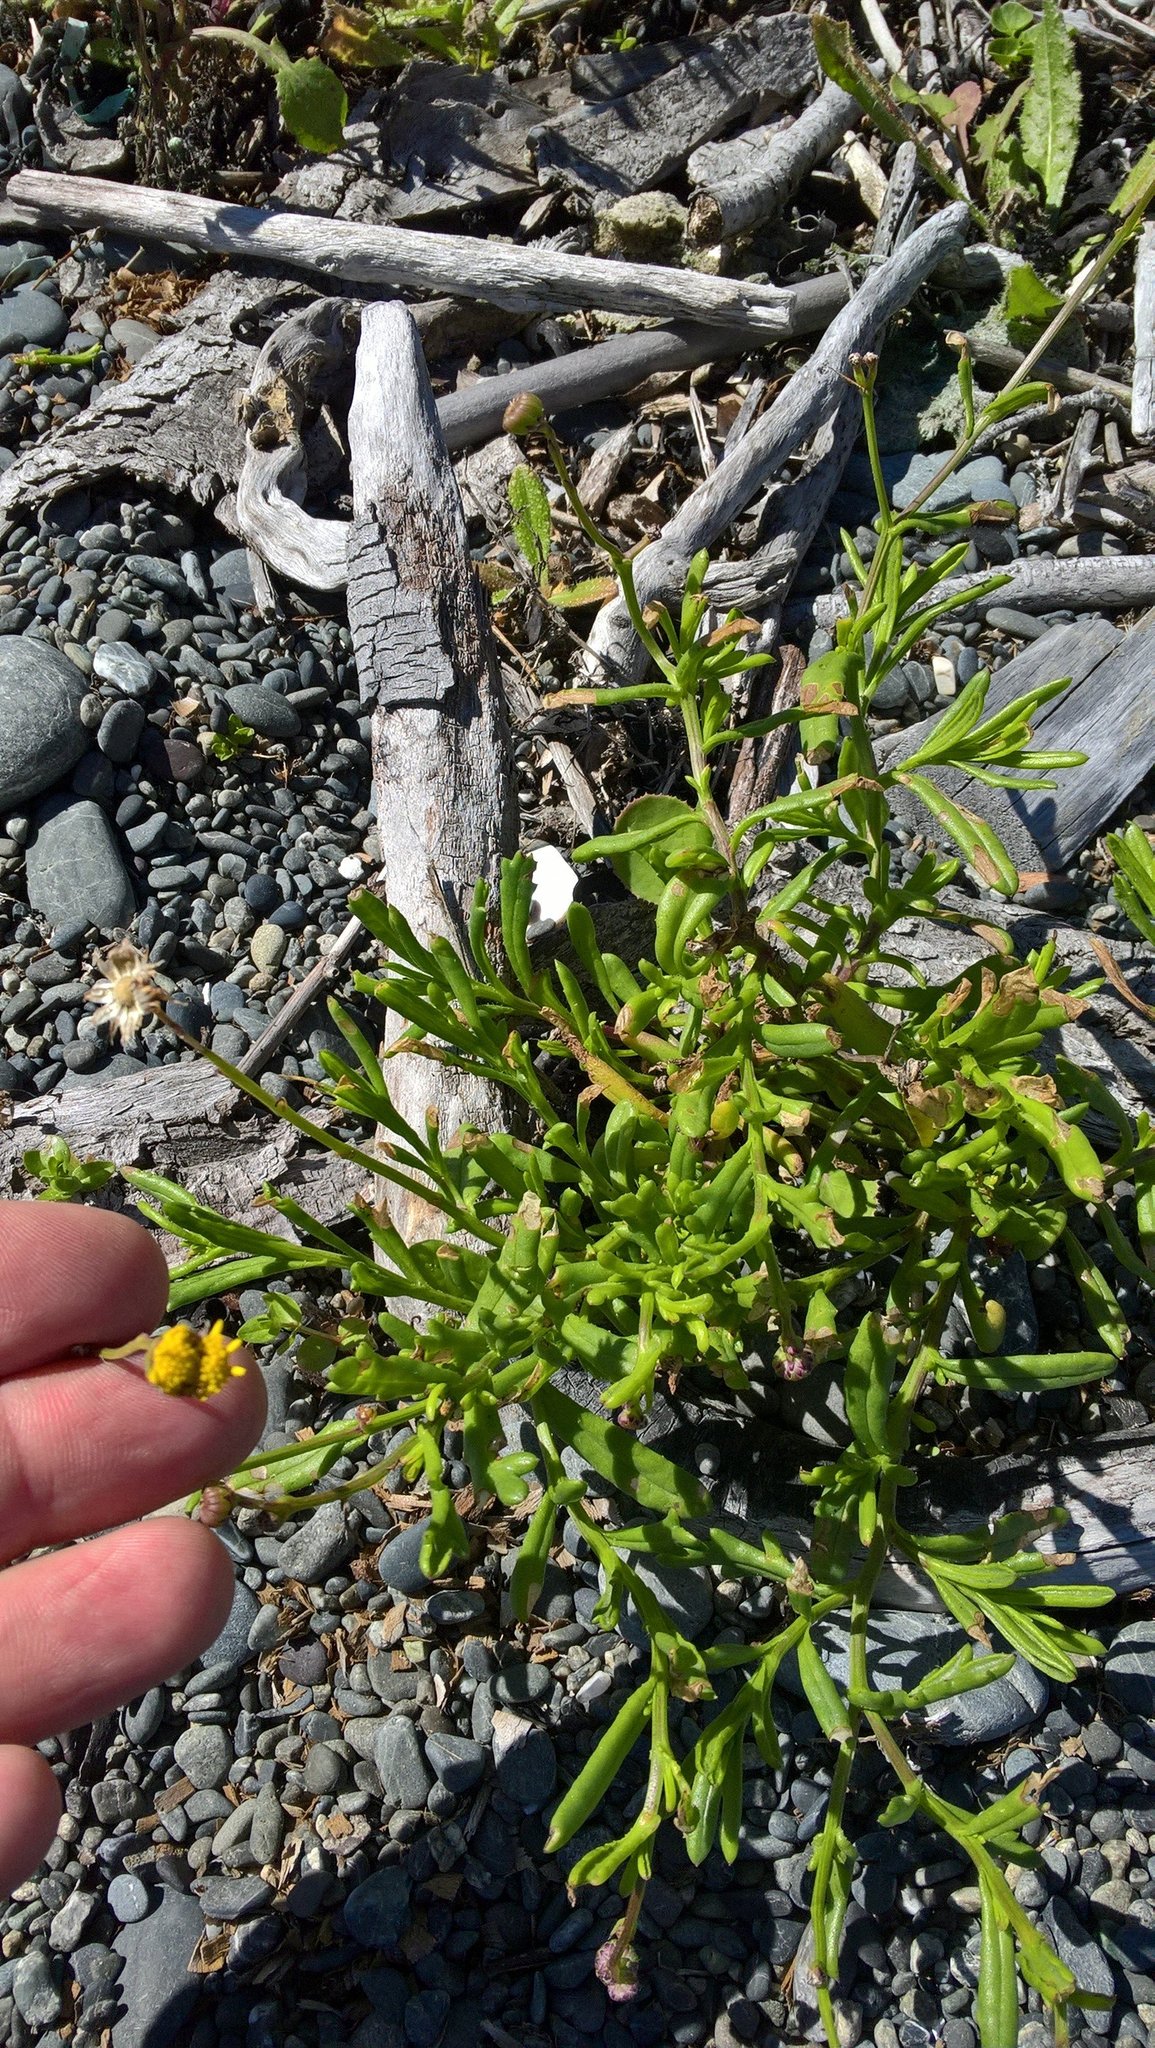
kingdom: Plantae
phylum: Tracheophyta
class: Magnoliopsida
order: Asterales
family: Asteraceae
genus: Senecio
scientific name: Senecio skirrhodon
